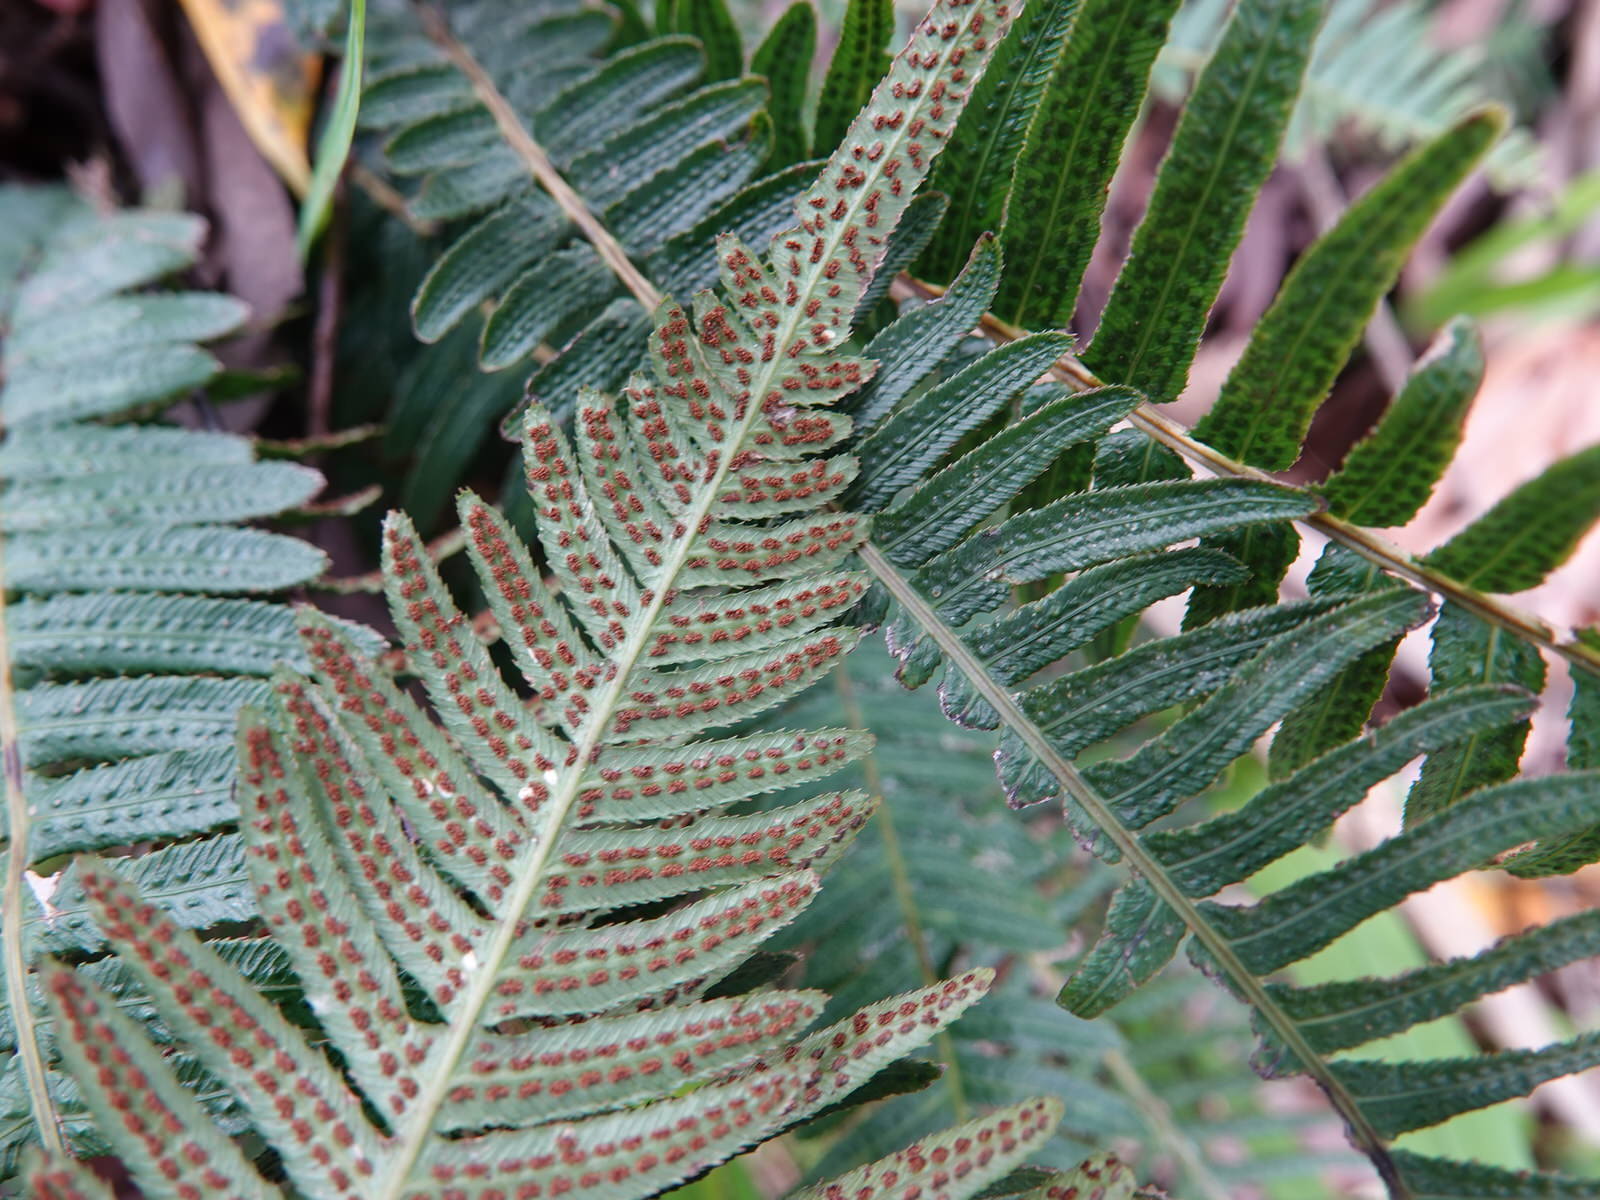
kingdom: Plantae
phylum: Tracheophyta
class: Polypodiopsida
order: Polypodiales
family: Blechnaceae
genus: Doodia
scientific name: Doodia australis
